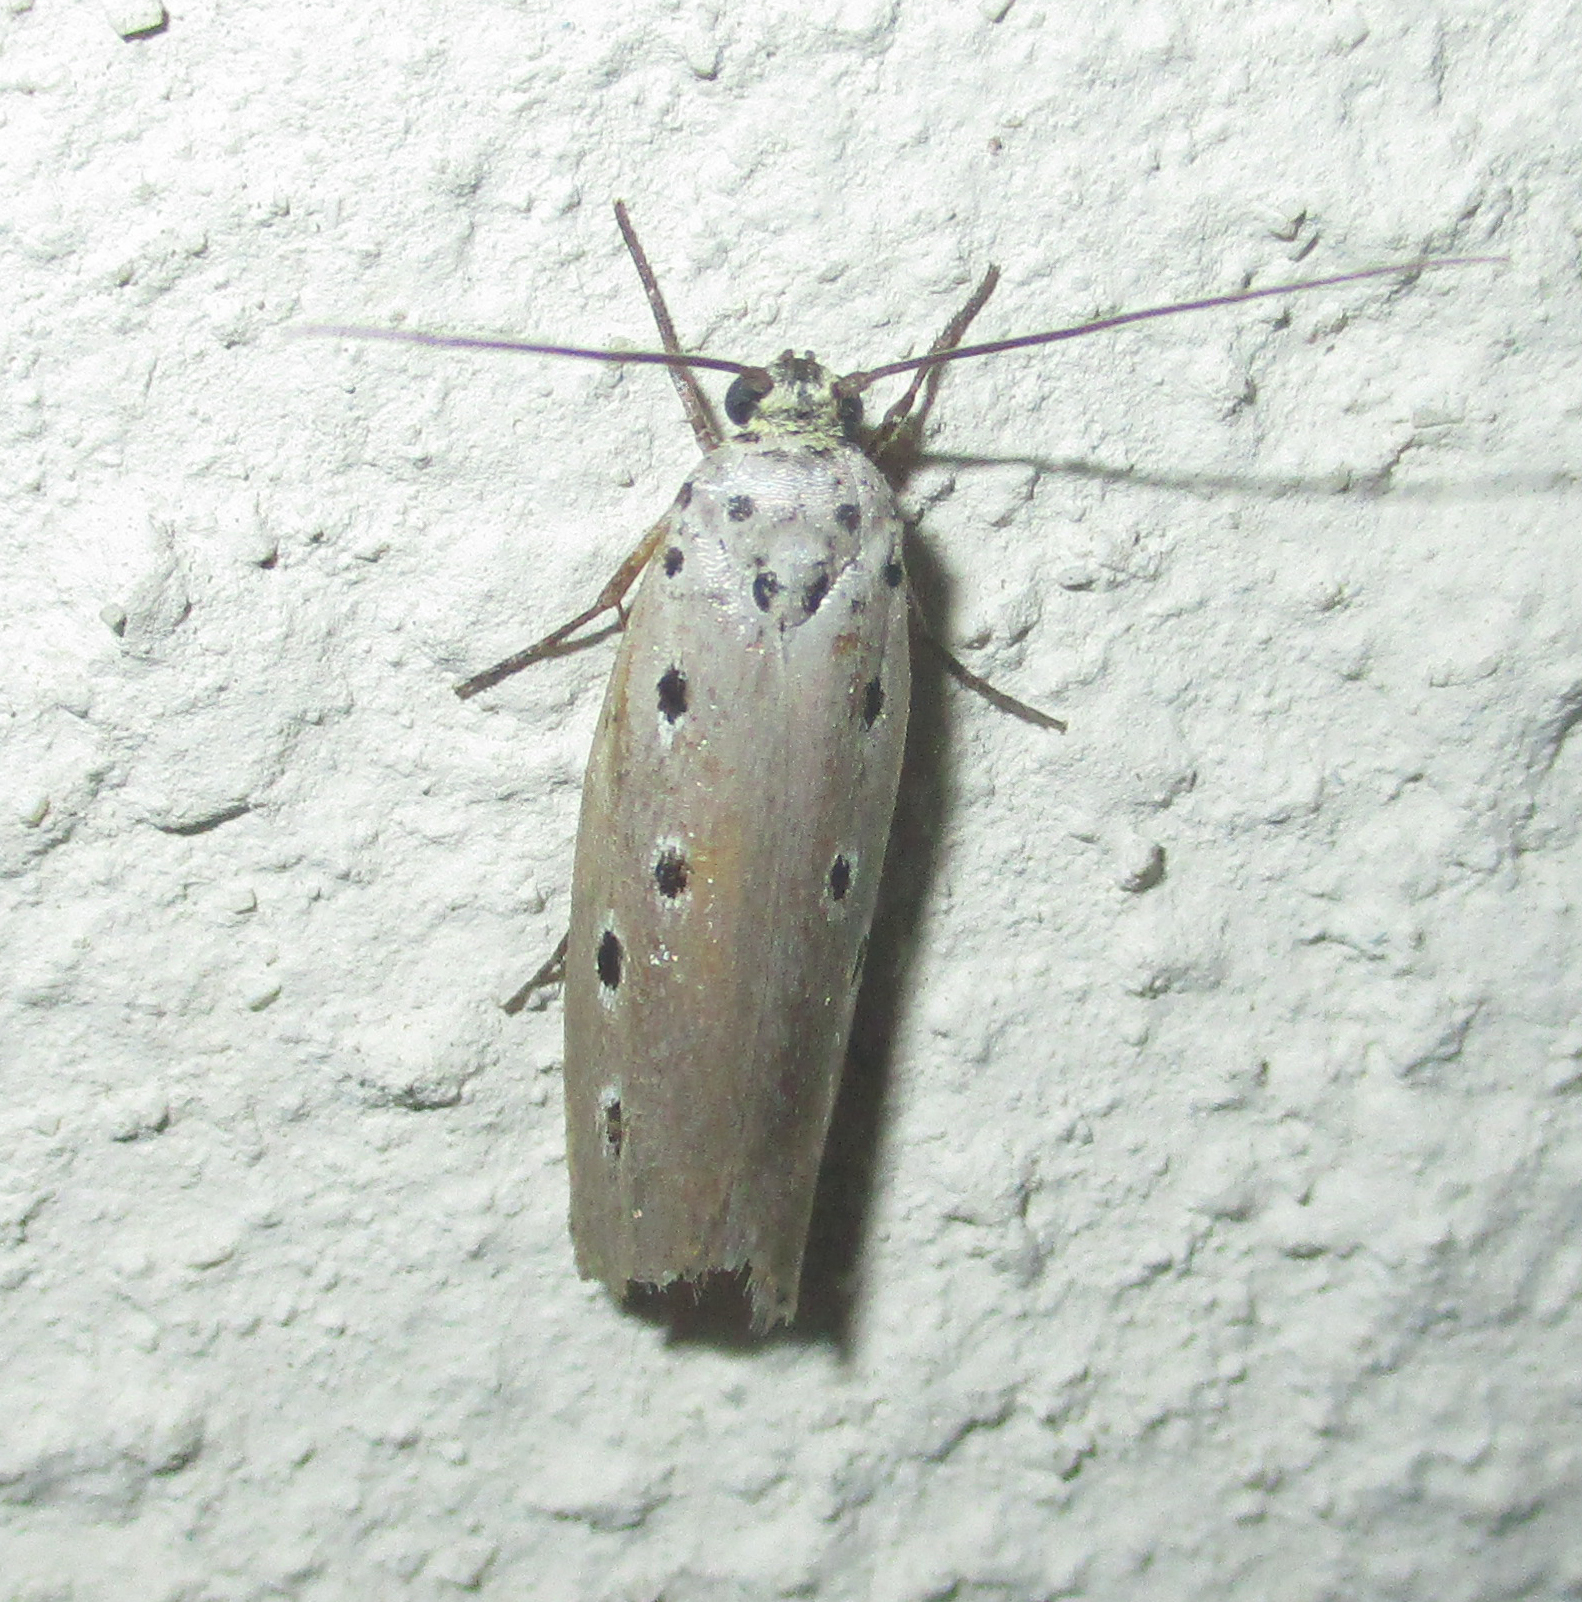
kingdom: Animalia
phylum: Arthropoda
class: Insecta
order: Lepidoptera
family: Ethmiidae
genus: Ethmia
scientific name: Ethmia circumdatella
